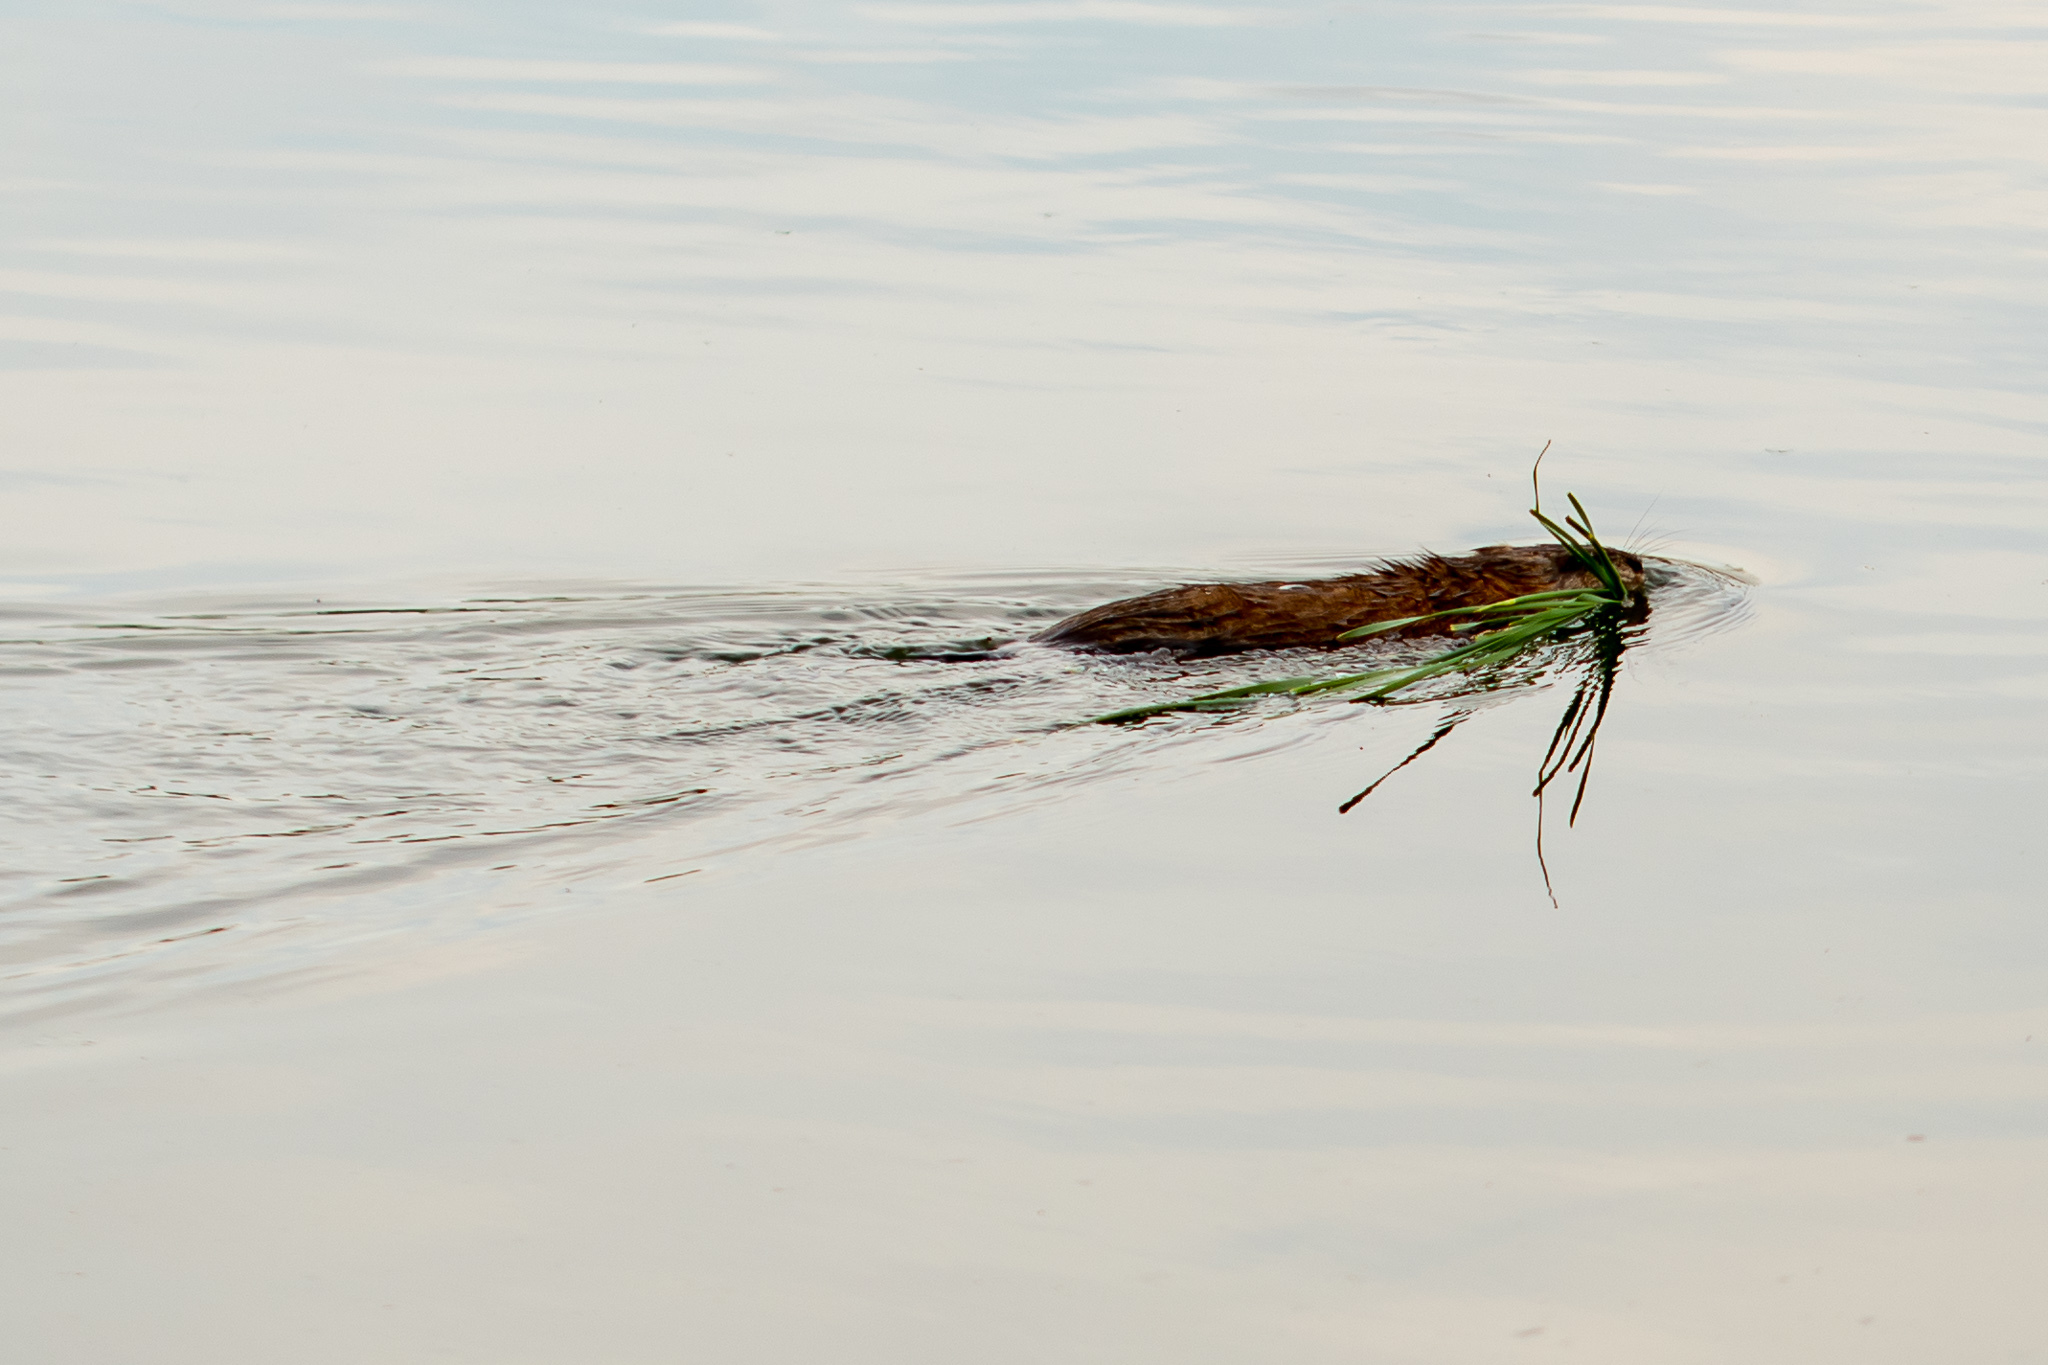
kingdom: Animalia
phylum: Chordata
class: Mammalia
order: Rodentia
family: Cricetidae
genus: Ondatra
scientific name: Ondatra zibethicus
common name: Muskrat
